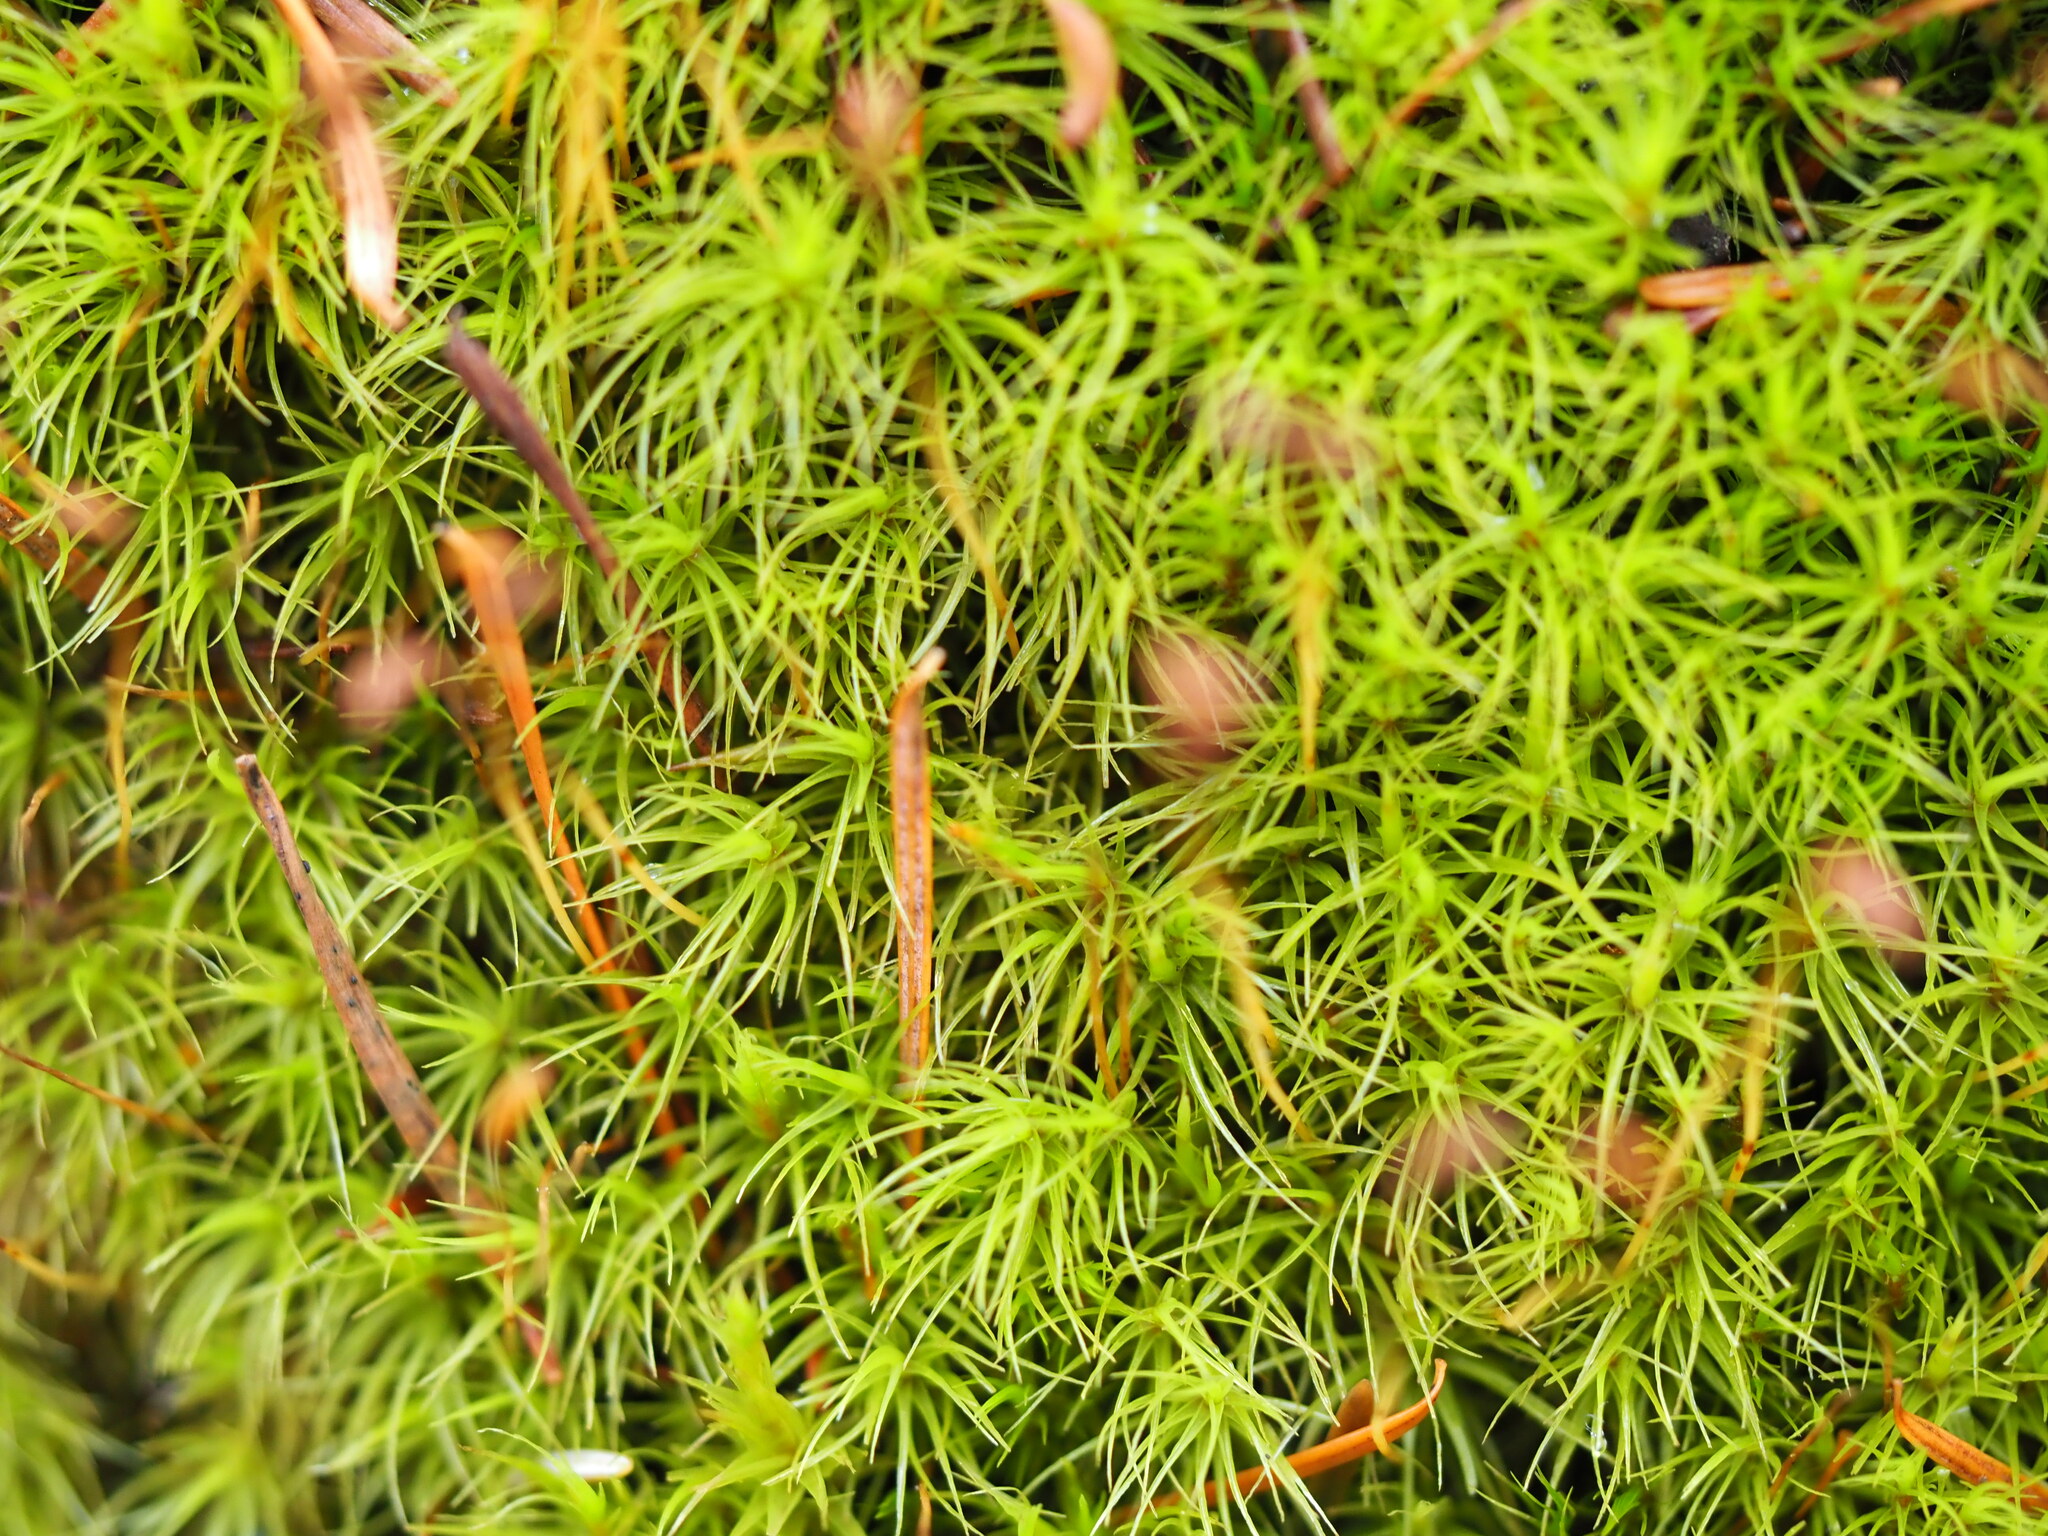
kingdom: Plantae
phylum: Bryophyta
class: Bryopsida
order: Dicranales
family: Dicranaceae
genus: Dicranum
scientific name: Dicranum scoparium
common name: Broom fork-moss
